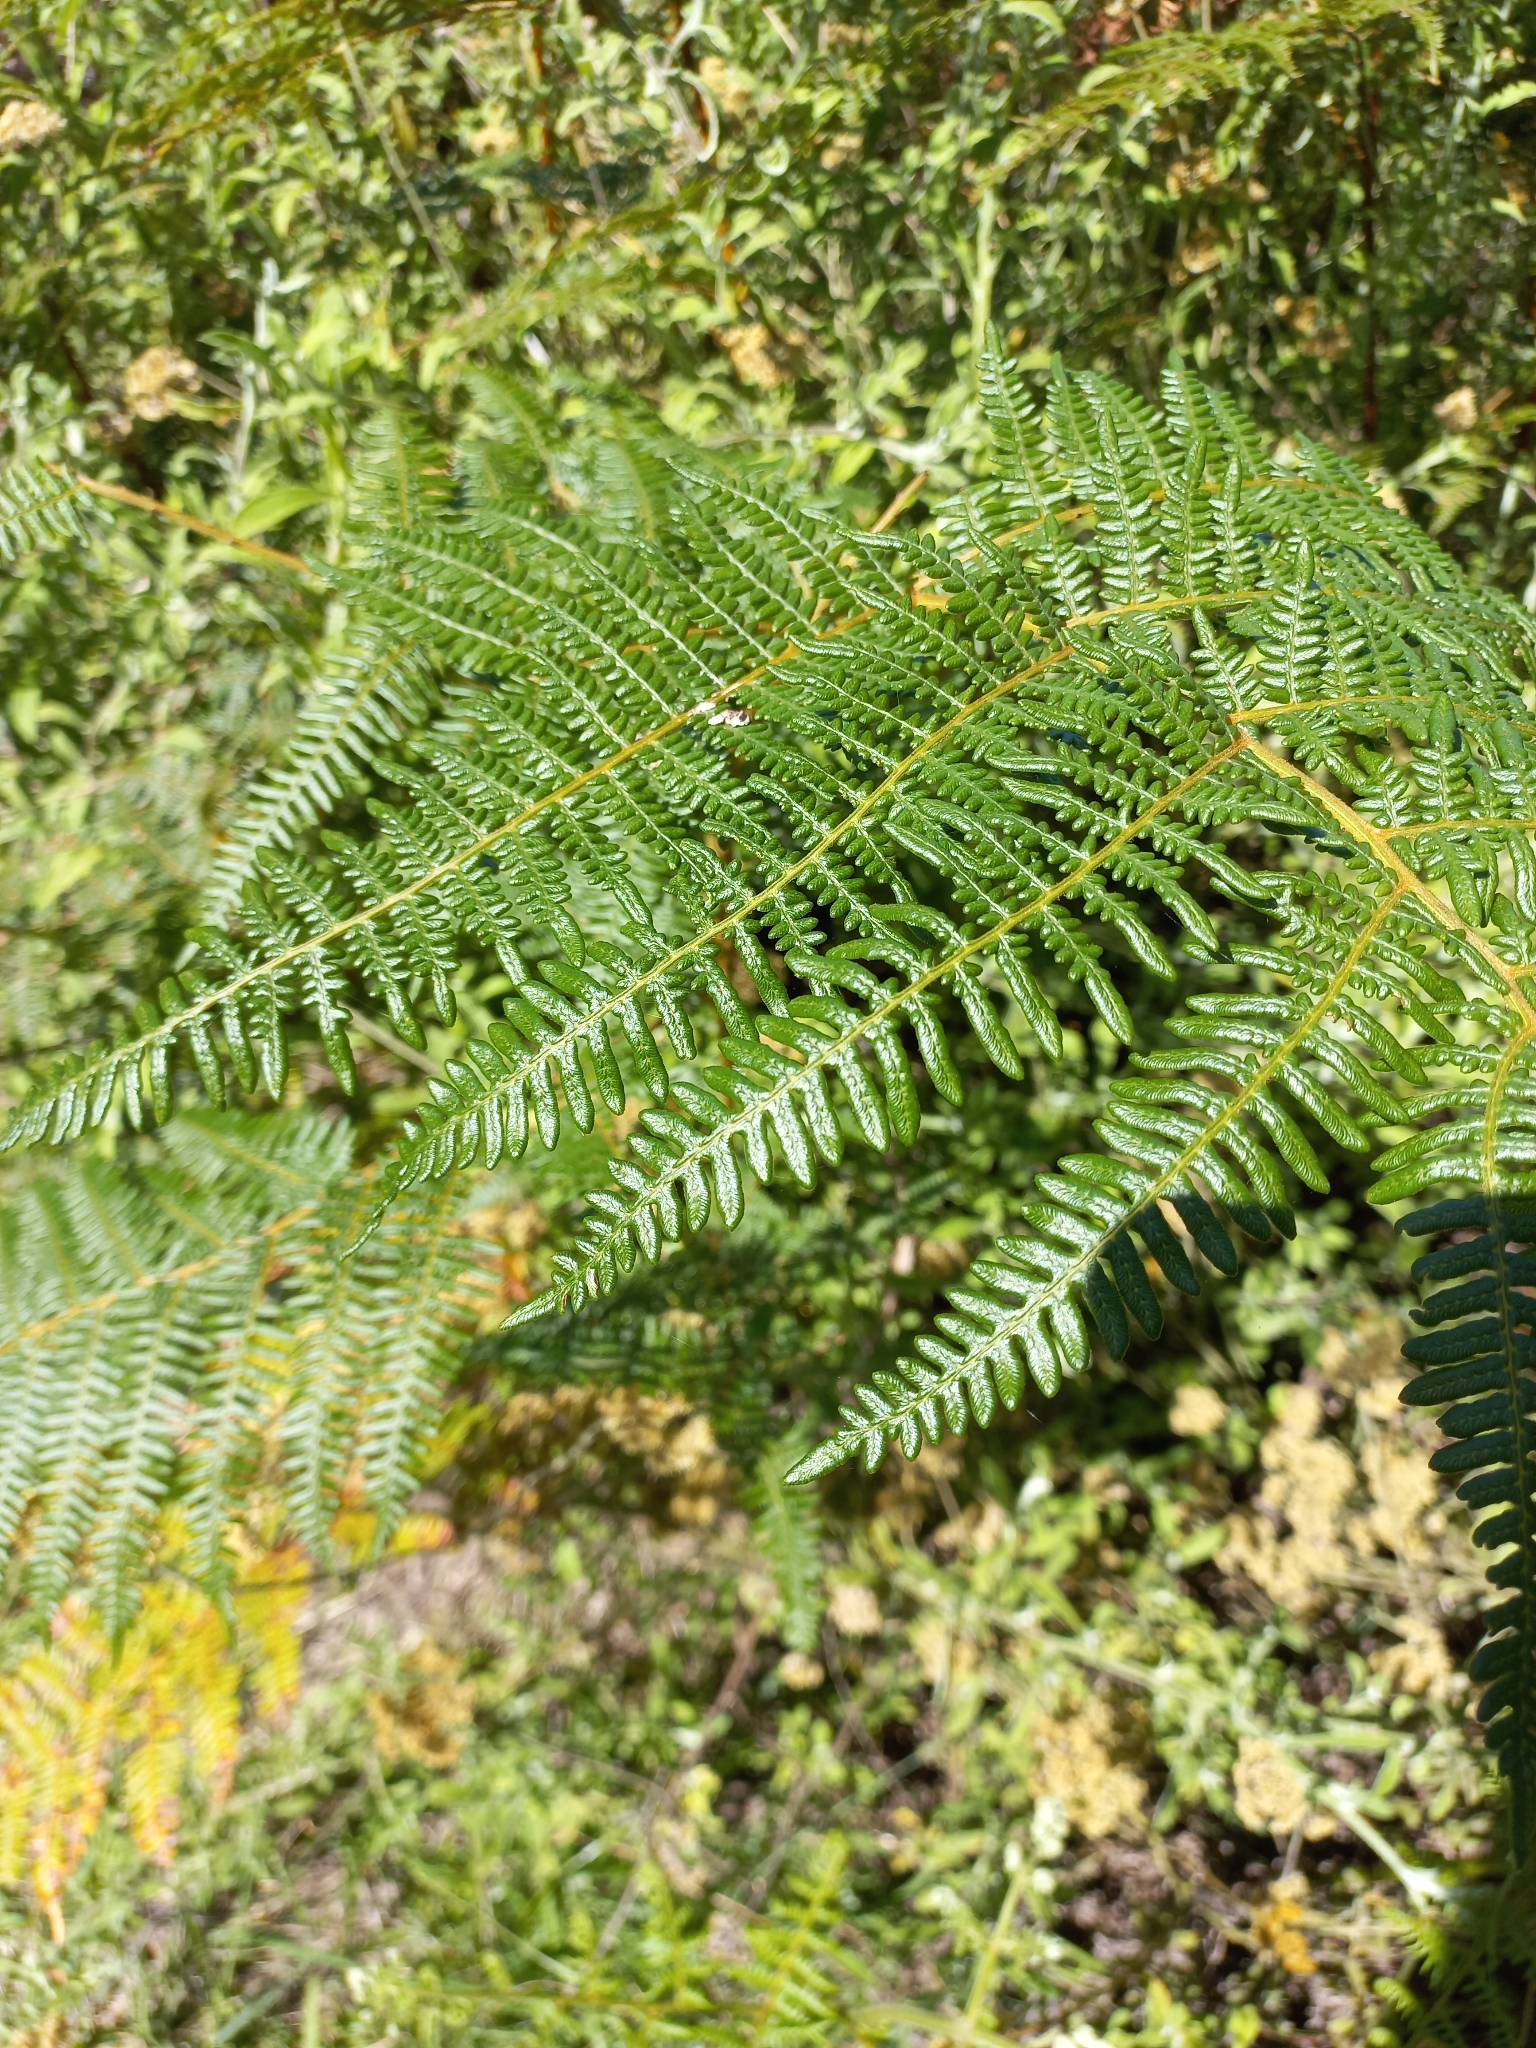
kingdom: Plantae
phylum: Tracheophyta
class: Polypodiopsida
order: Polypodiales
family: Dennstaedtiaceae
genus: Pteridium
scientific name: Pteridium aquilinum
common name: Bracken
